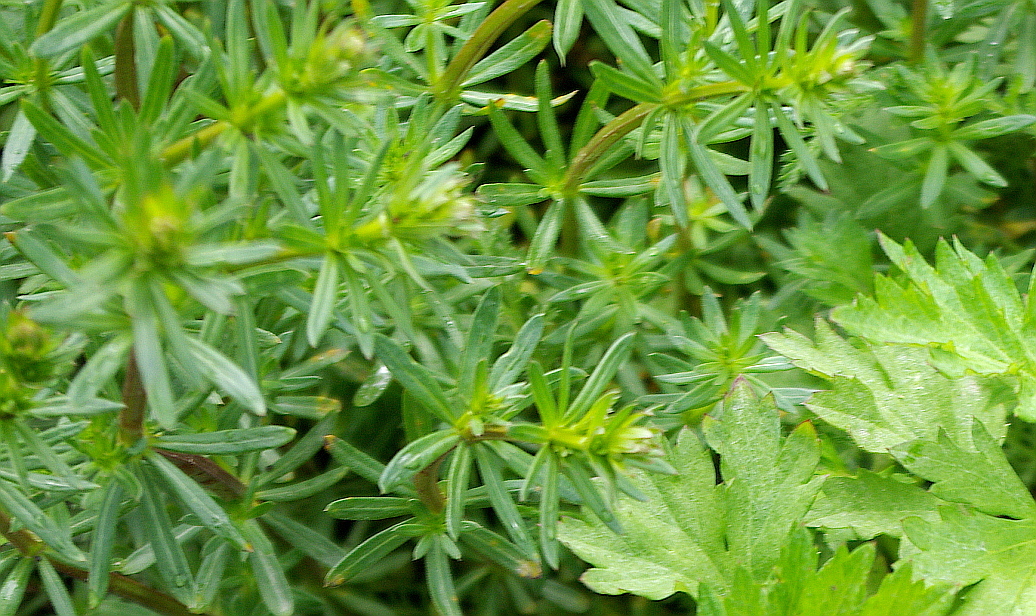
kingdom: Plantae
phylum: Tracheophyta
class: Magnoliopsida
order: Gentianales
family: Rubiaceae
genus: Galium
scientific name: Galium mollugo
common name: Hedge bedstraw
